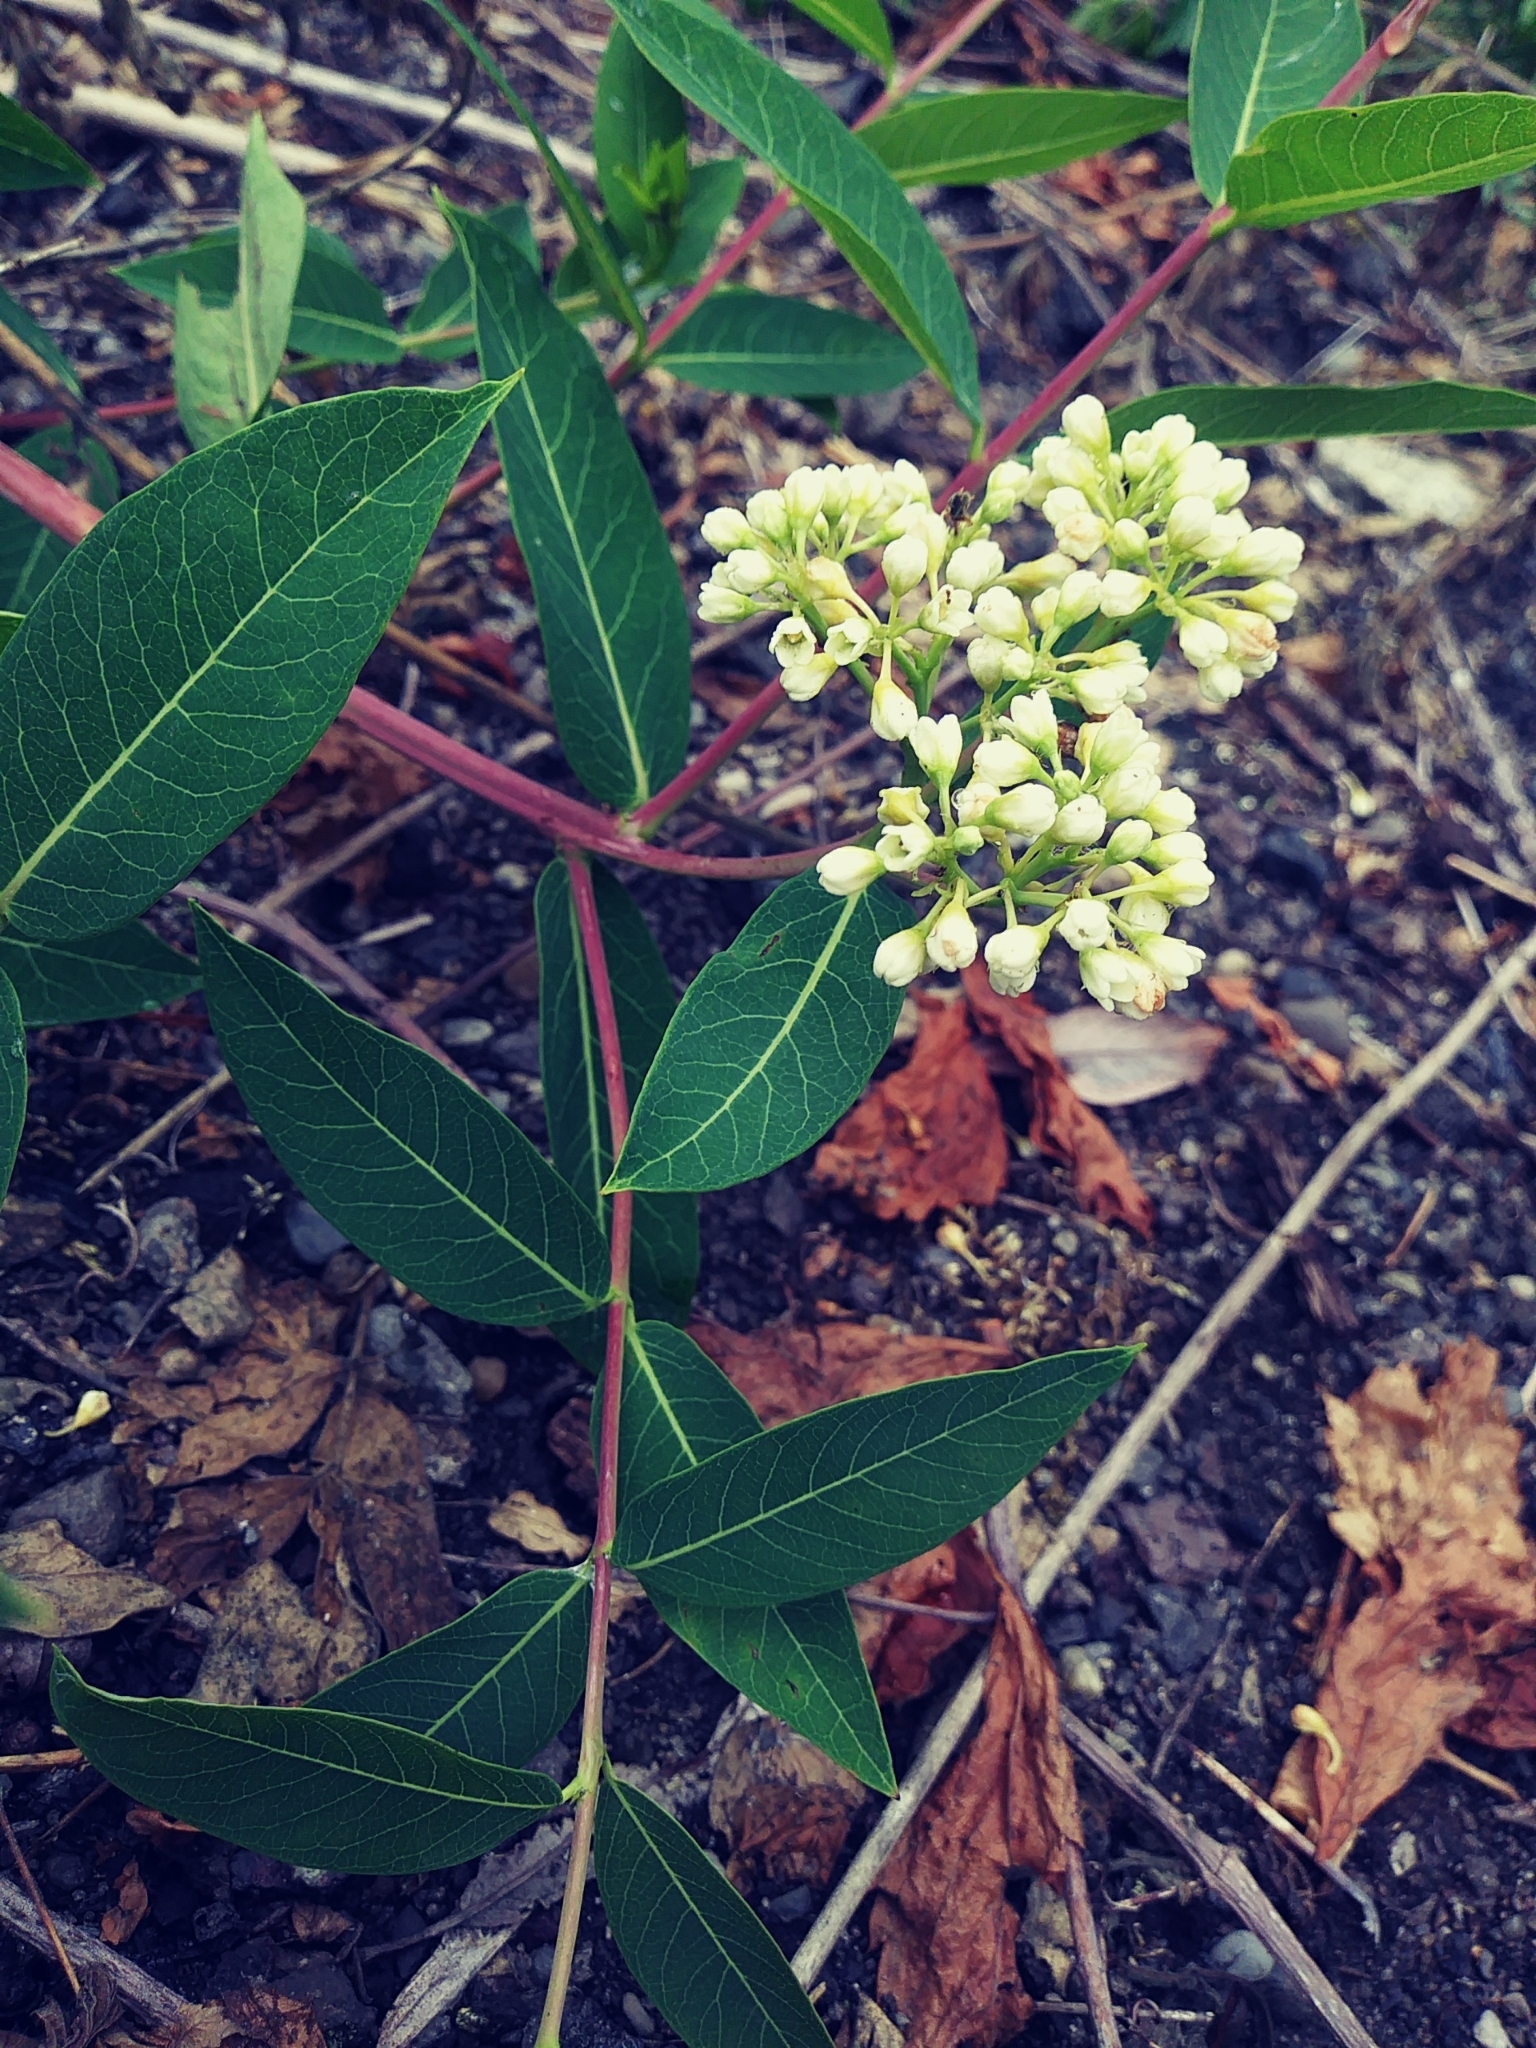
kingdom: Plantae
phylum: Tracheophyta
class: Magnoliopsida
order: Gentianales
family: Apocynaceae
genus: Apocynum
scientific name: Apocynum cannabinum
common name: Hemp dogbane
